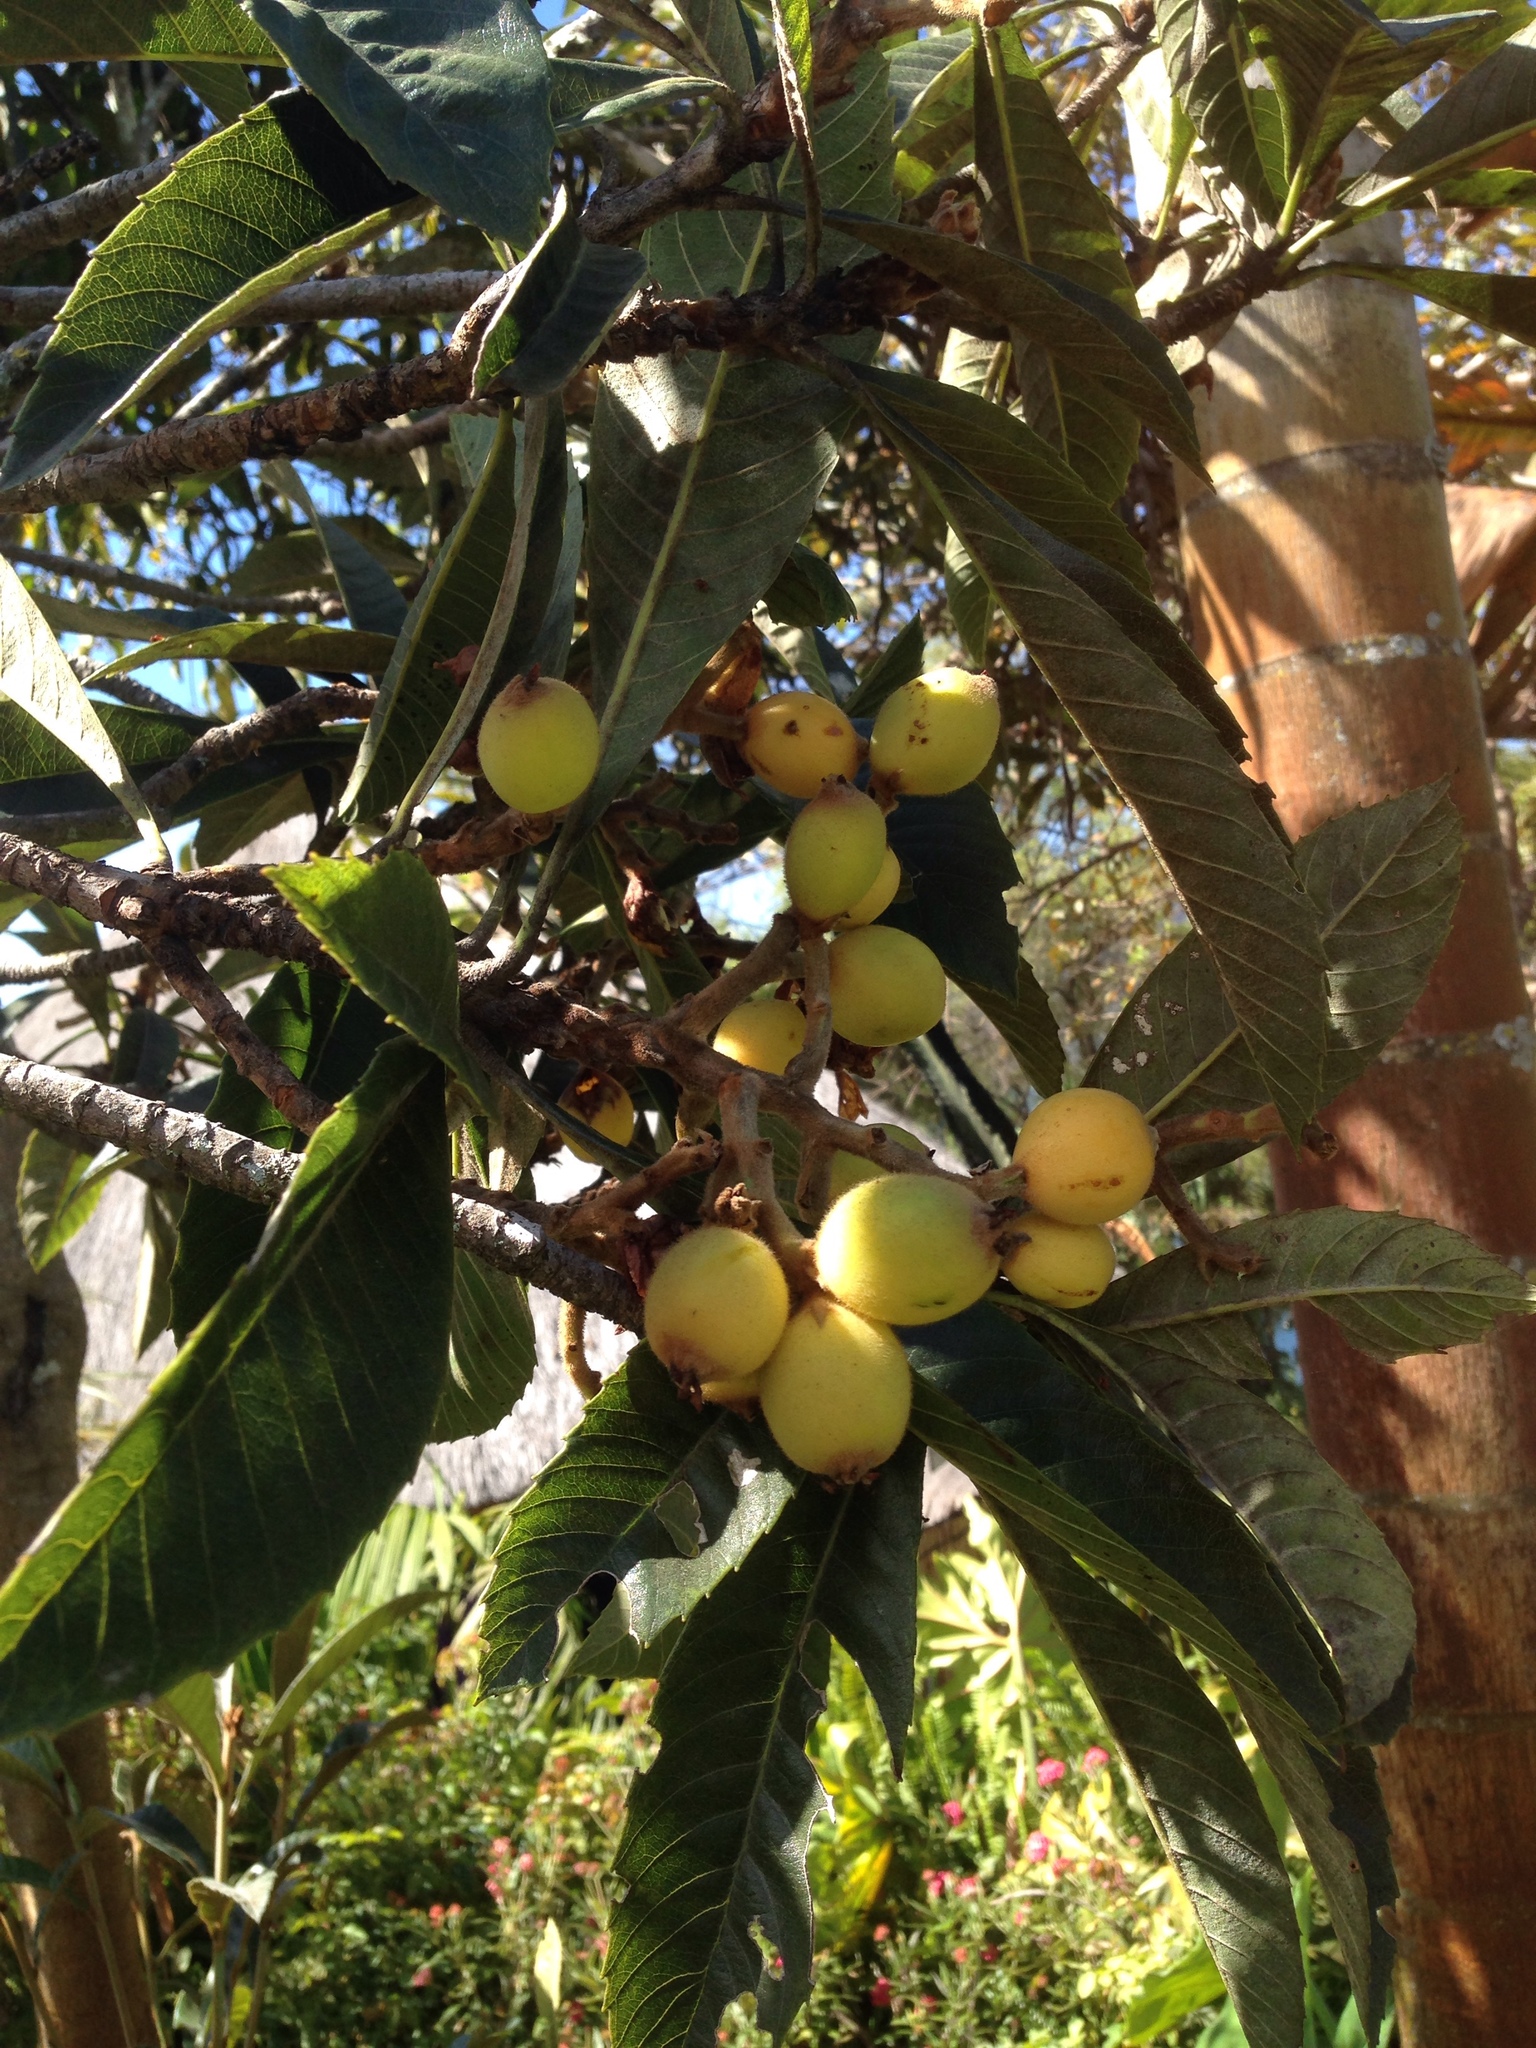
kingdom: Plantae
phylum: Tracheophyta
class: Magnoliopsida
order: Rosales
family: Rosaceae
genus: Rhaphiolepis
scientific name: Rhaphiolepis bibas
